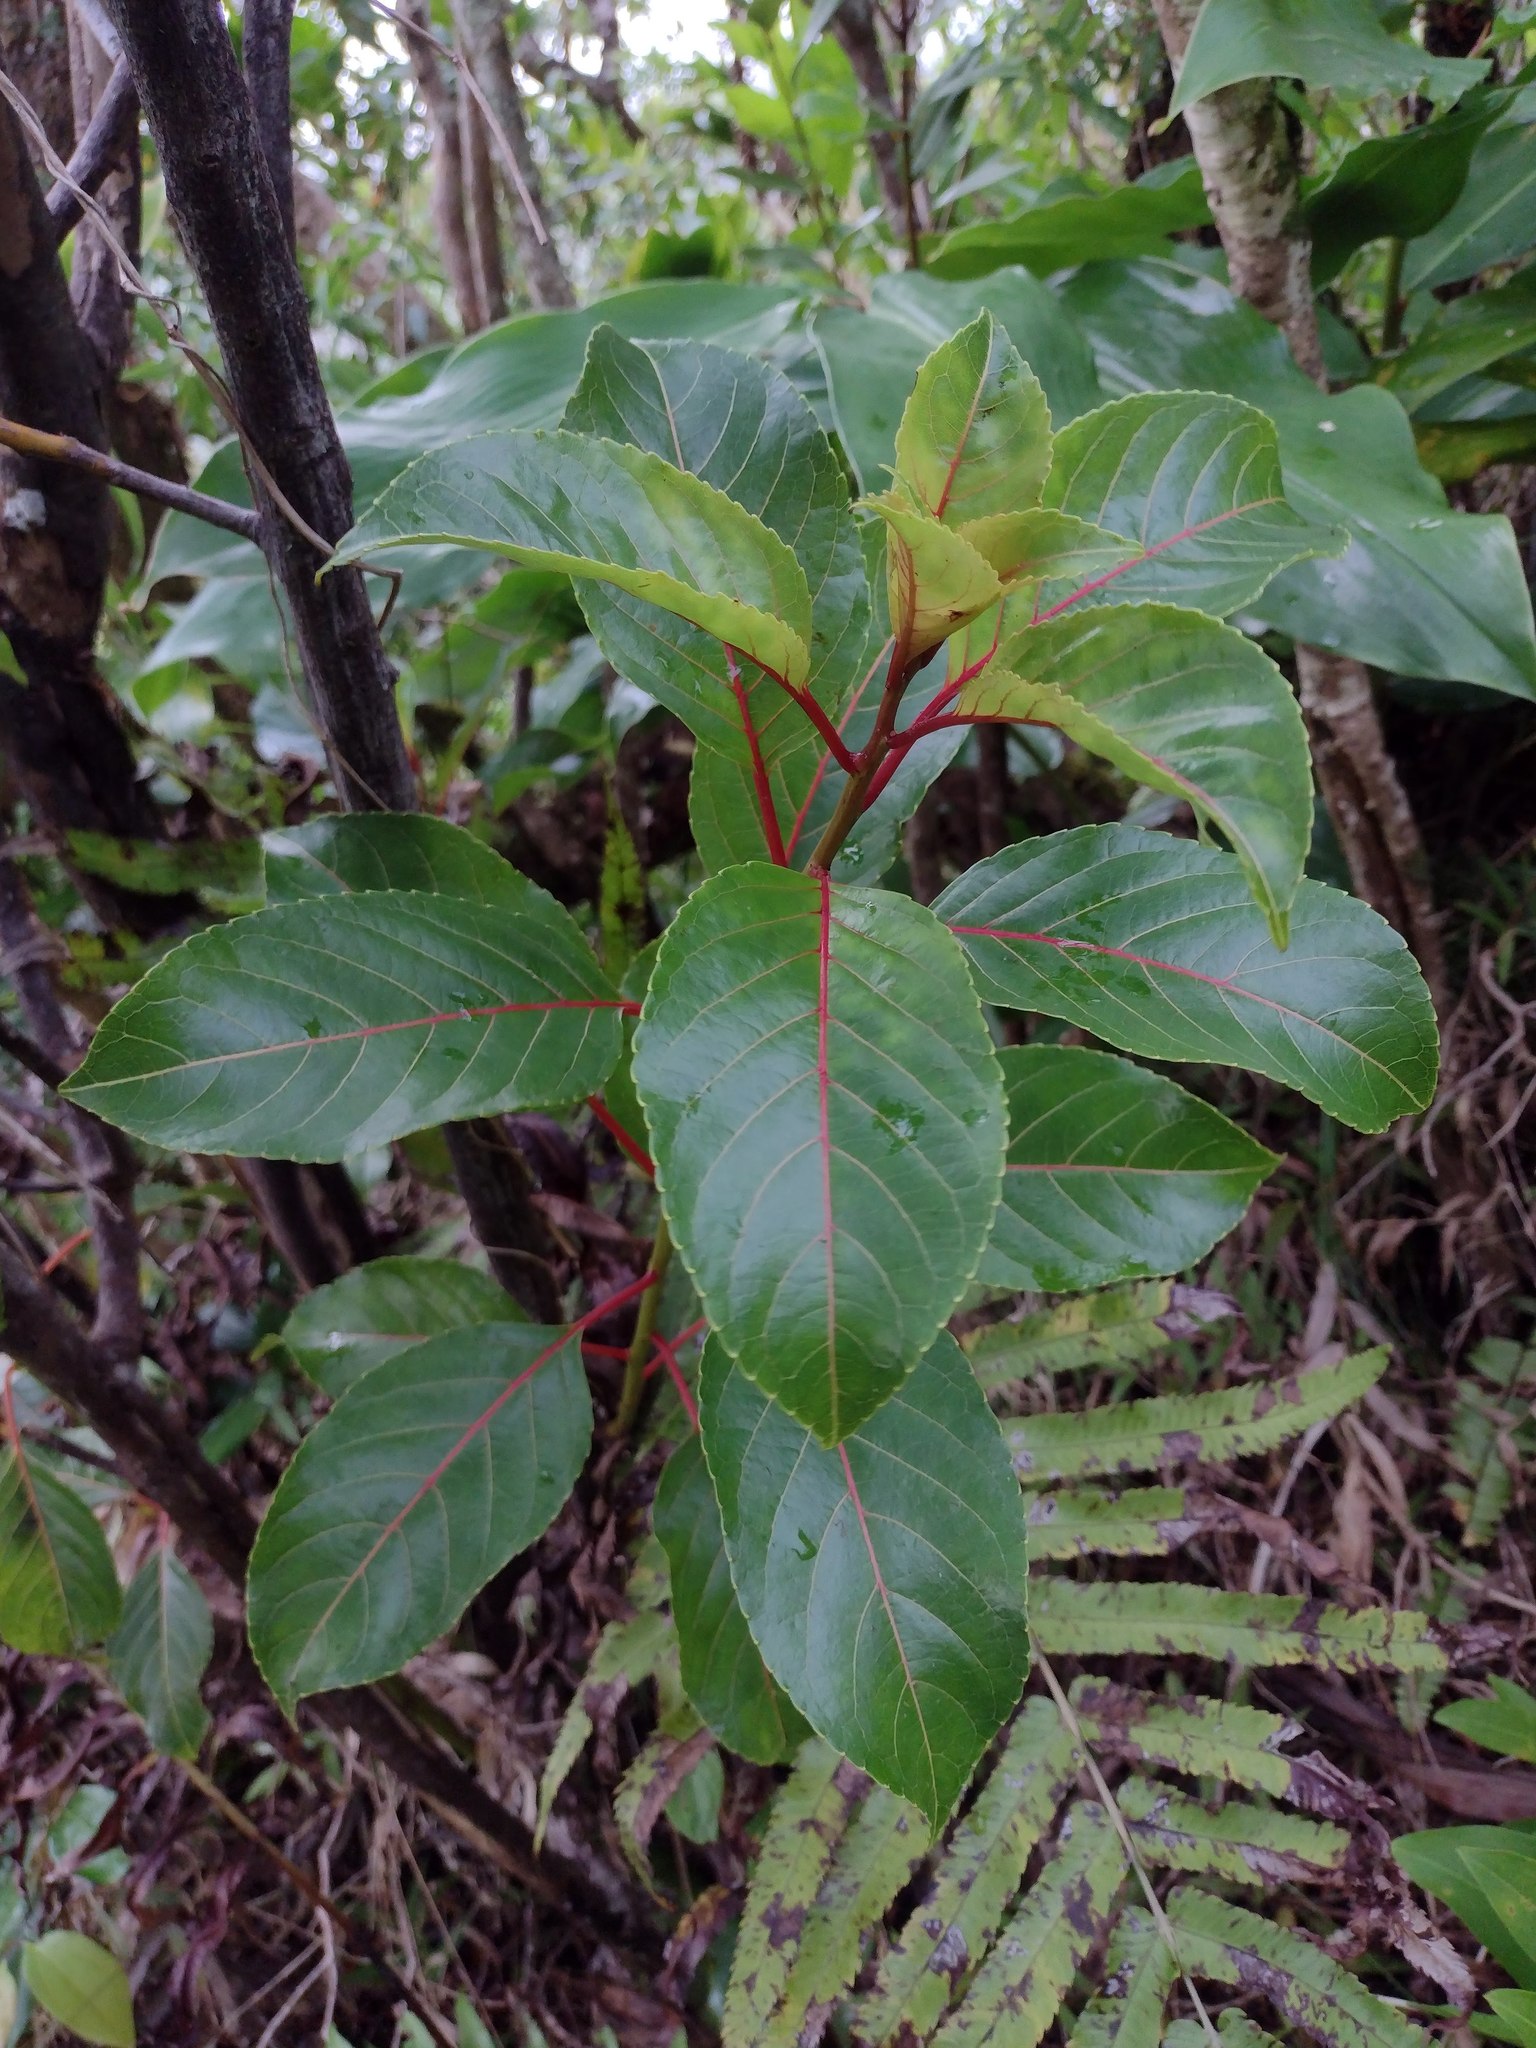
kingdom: Plantae
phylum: Tracheophyta
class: Magnoliopsida
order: Huerteales
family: Dipentodontaceae
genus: Perrottetia
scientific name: Perrottetia sandwicensis
